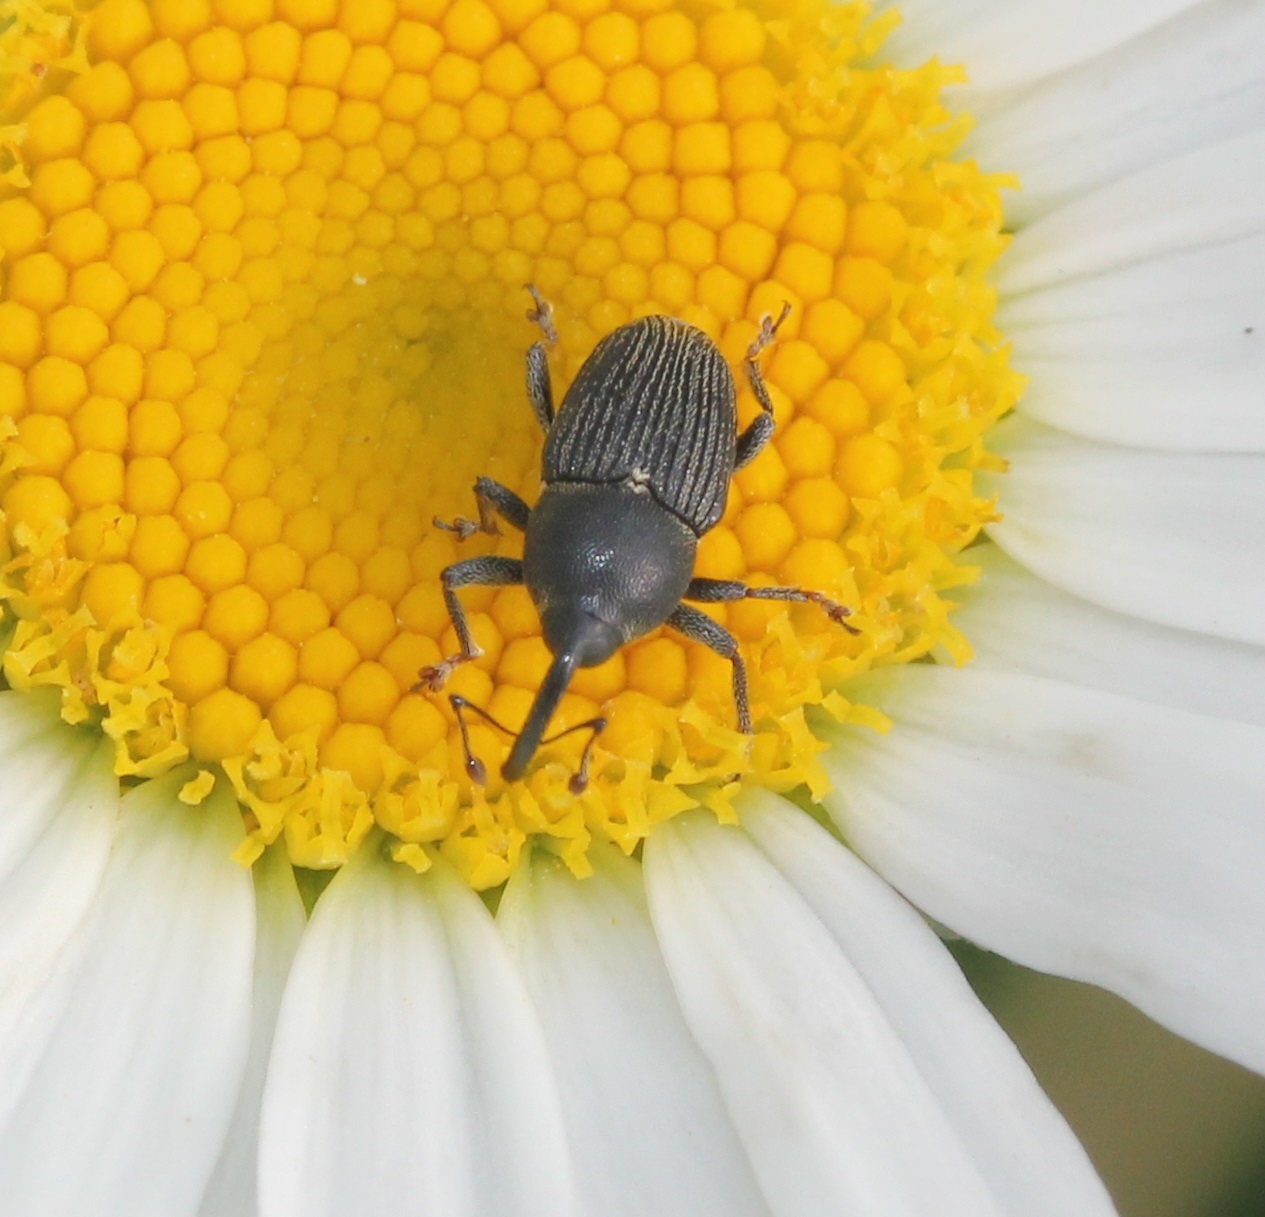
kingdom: Animalia
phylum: Arthropoda
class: Insecta
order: Coleoptera
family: Curculionidae
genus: Odontocorynus
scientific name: Odontocorynus salebrosus
